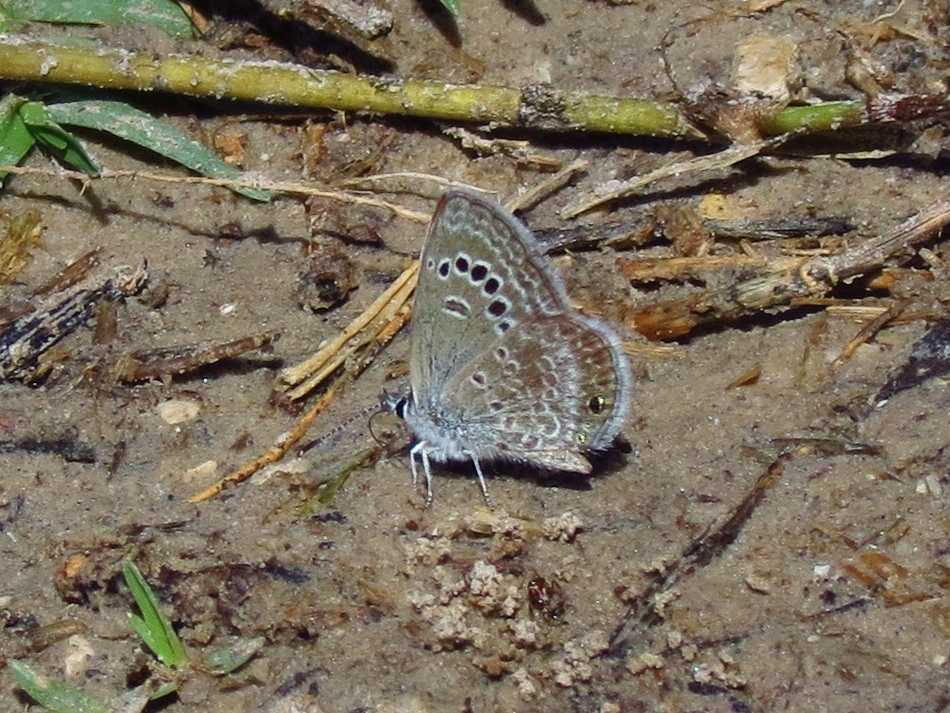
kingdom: Animalia
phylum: Arthropoda
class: Insecta
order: Lepidoptera
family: Lycaenidae
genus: Echinargus
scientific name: Echinargus isola
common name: Reakirt's blue
